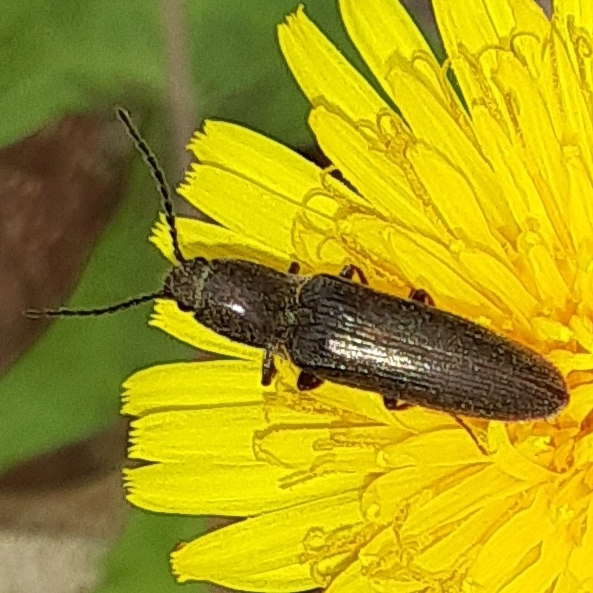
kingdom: Animalia
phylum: Arthropoda
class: Insecta
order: Coleoptera
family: Elateridae
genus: Sylvanelater
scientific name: Sylvanelater cylindriformis
